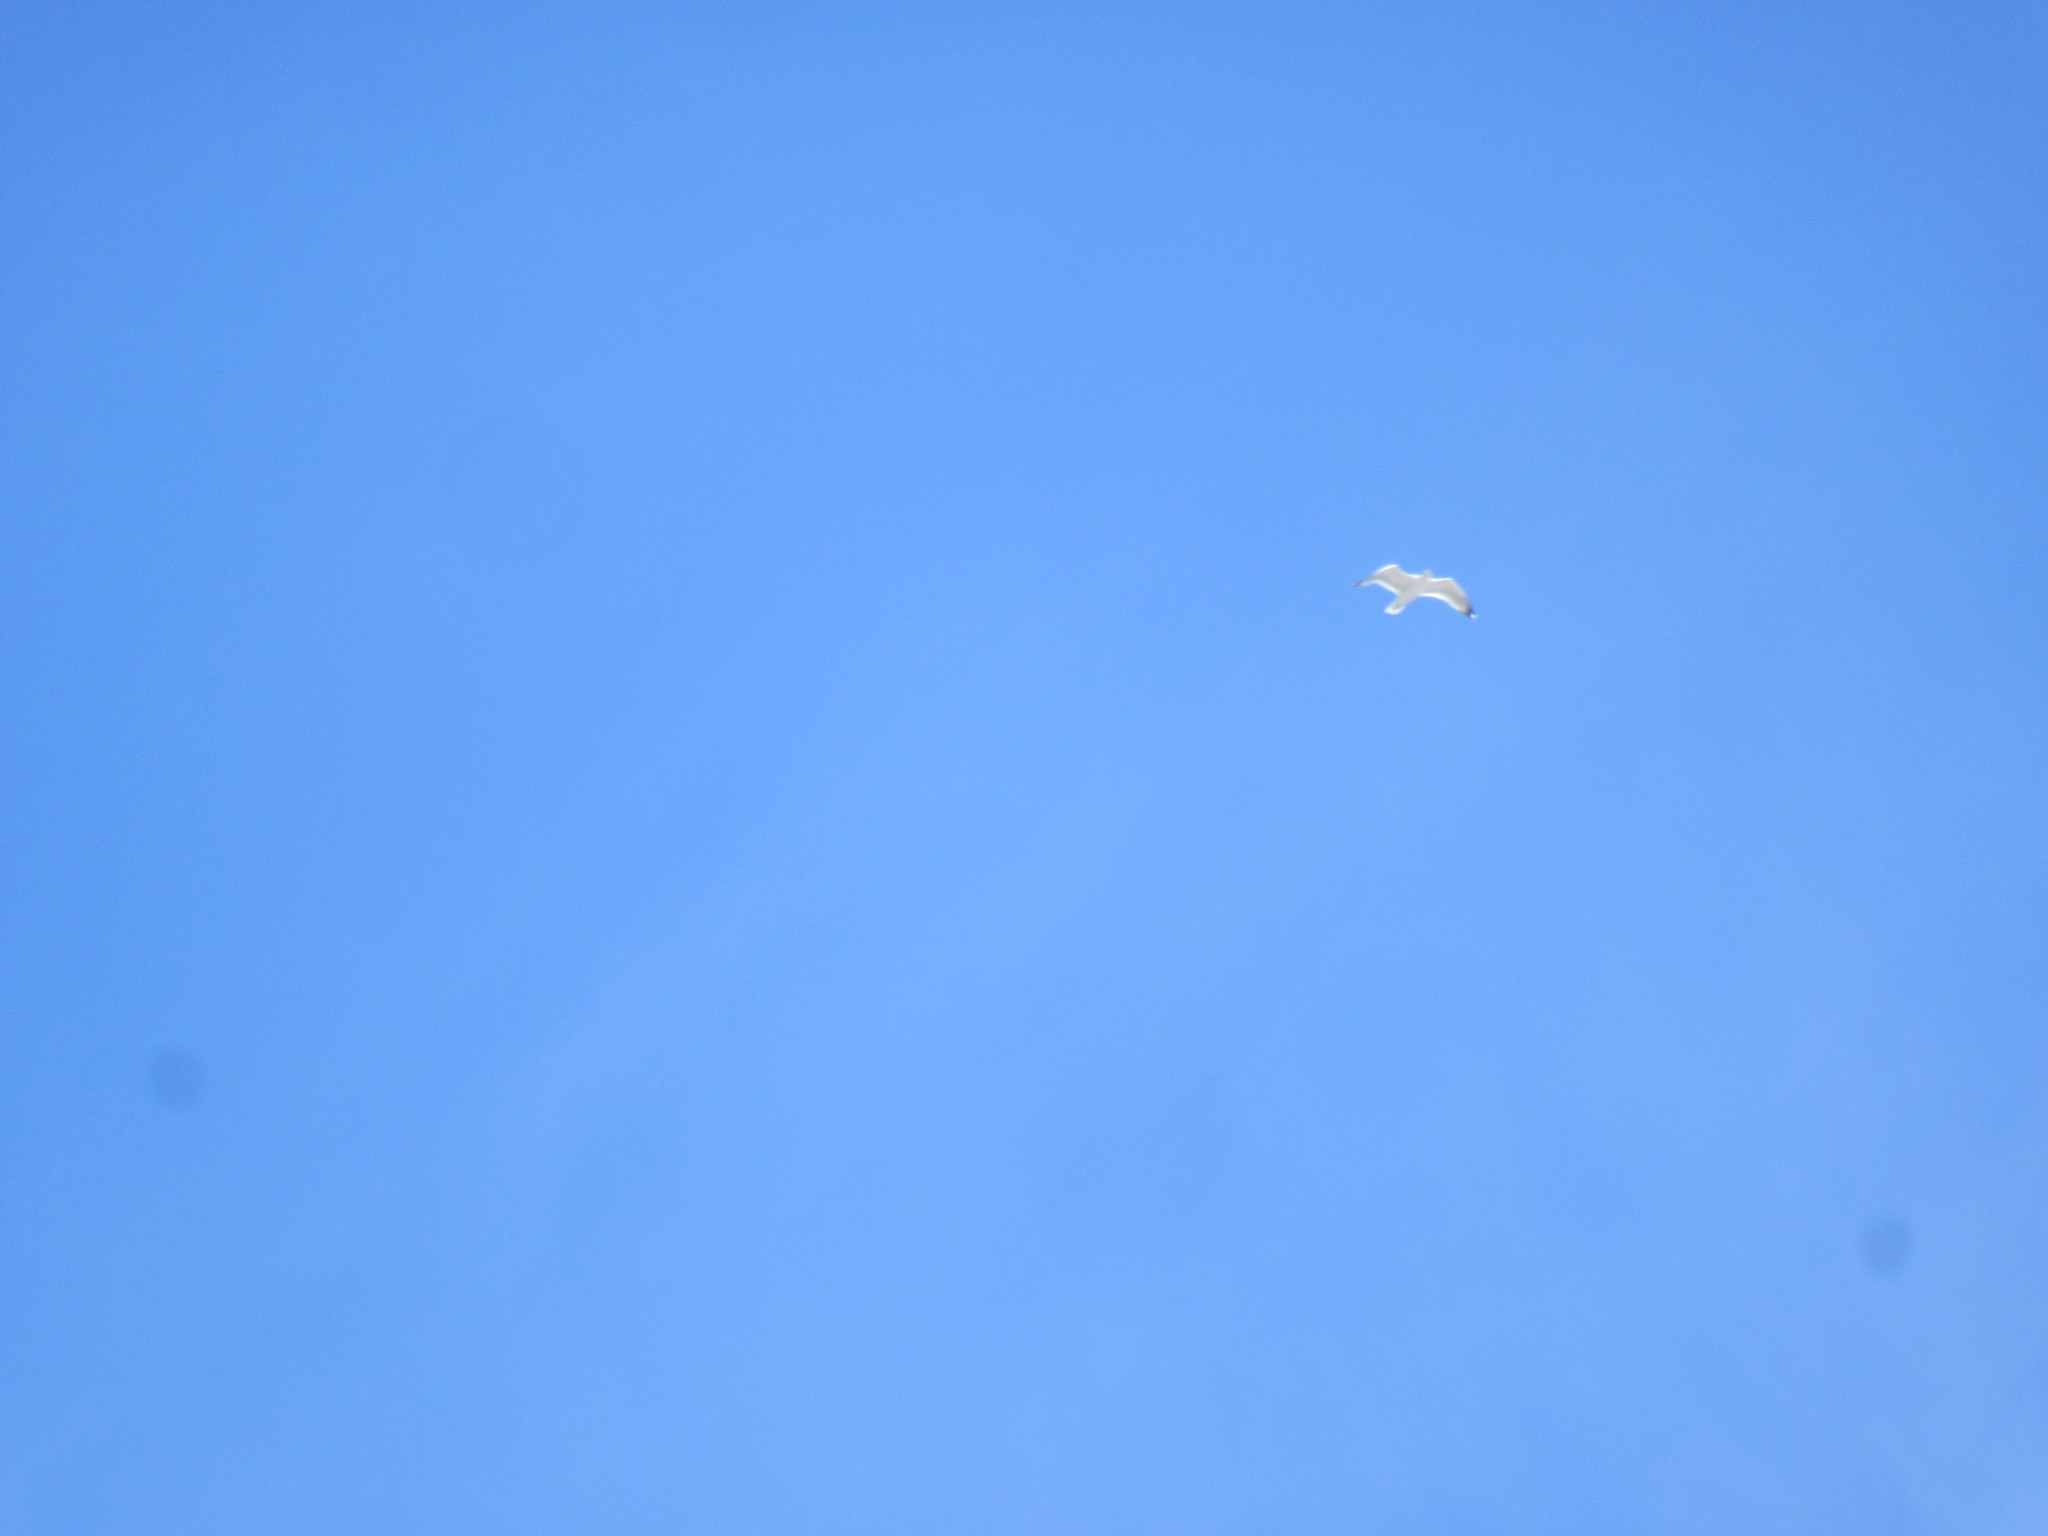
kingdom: Animalia
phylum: Chordata
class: Aves
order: Charadriiformes
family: Laridae
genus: Larus
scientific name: Larus argentatus
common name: Herring gull
